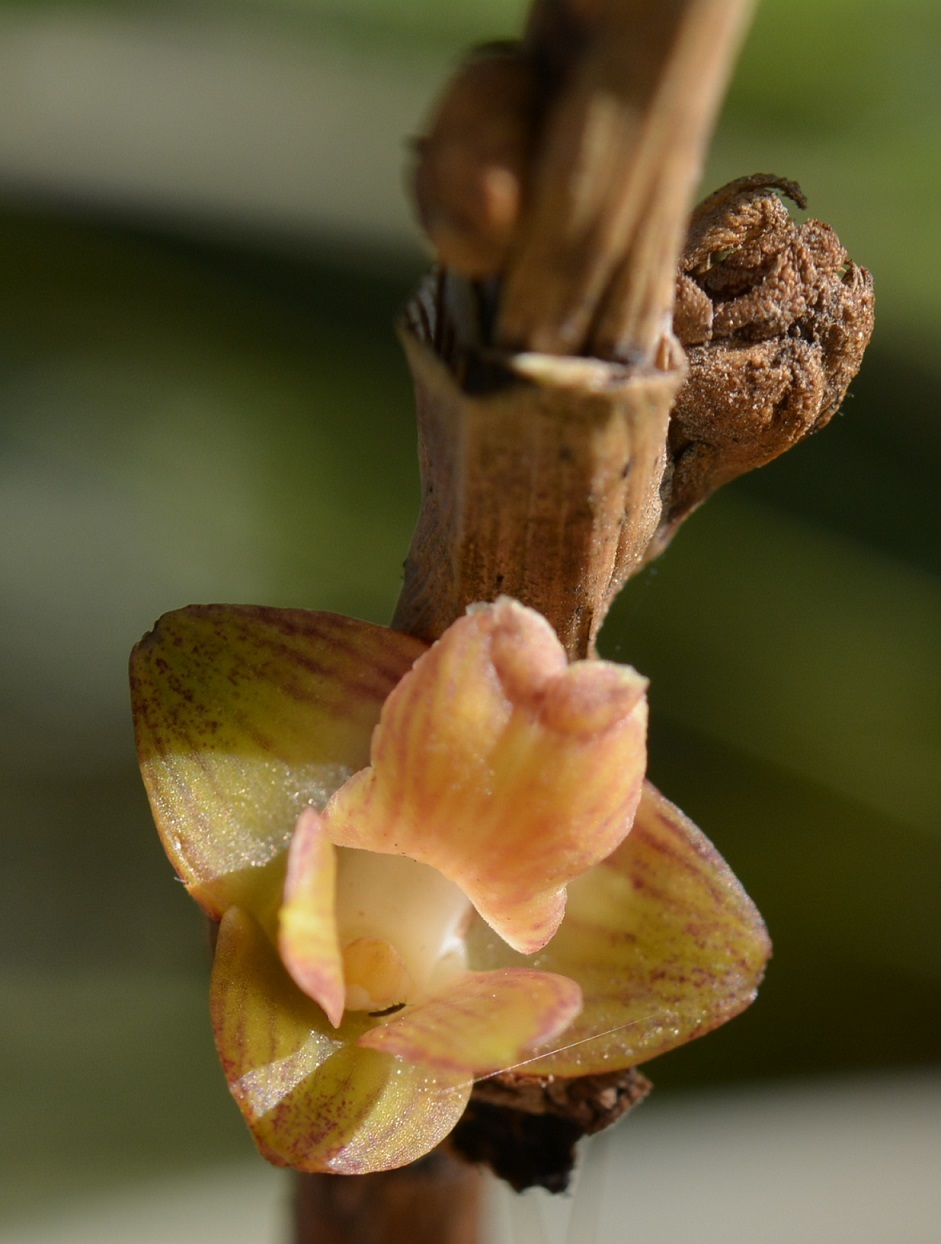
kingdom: Plantae
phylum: Tracheophyta
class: Liliopsida
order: Asparagales
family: Orchidaceae
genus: Nemaconia
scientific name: Nemaconia striata
